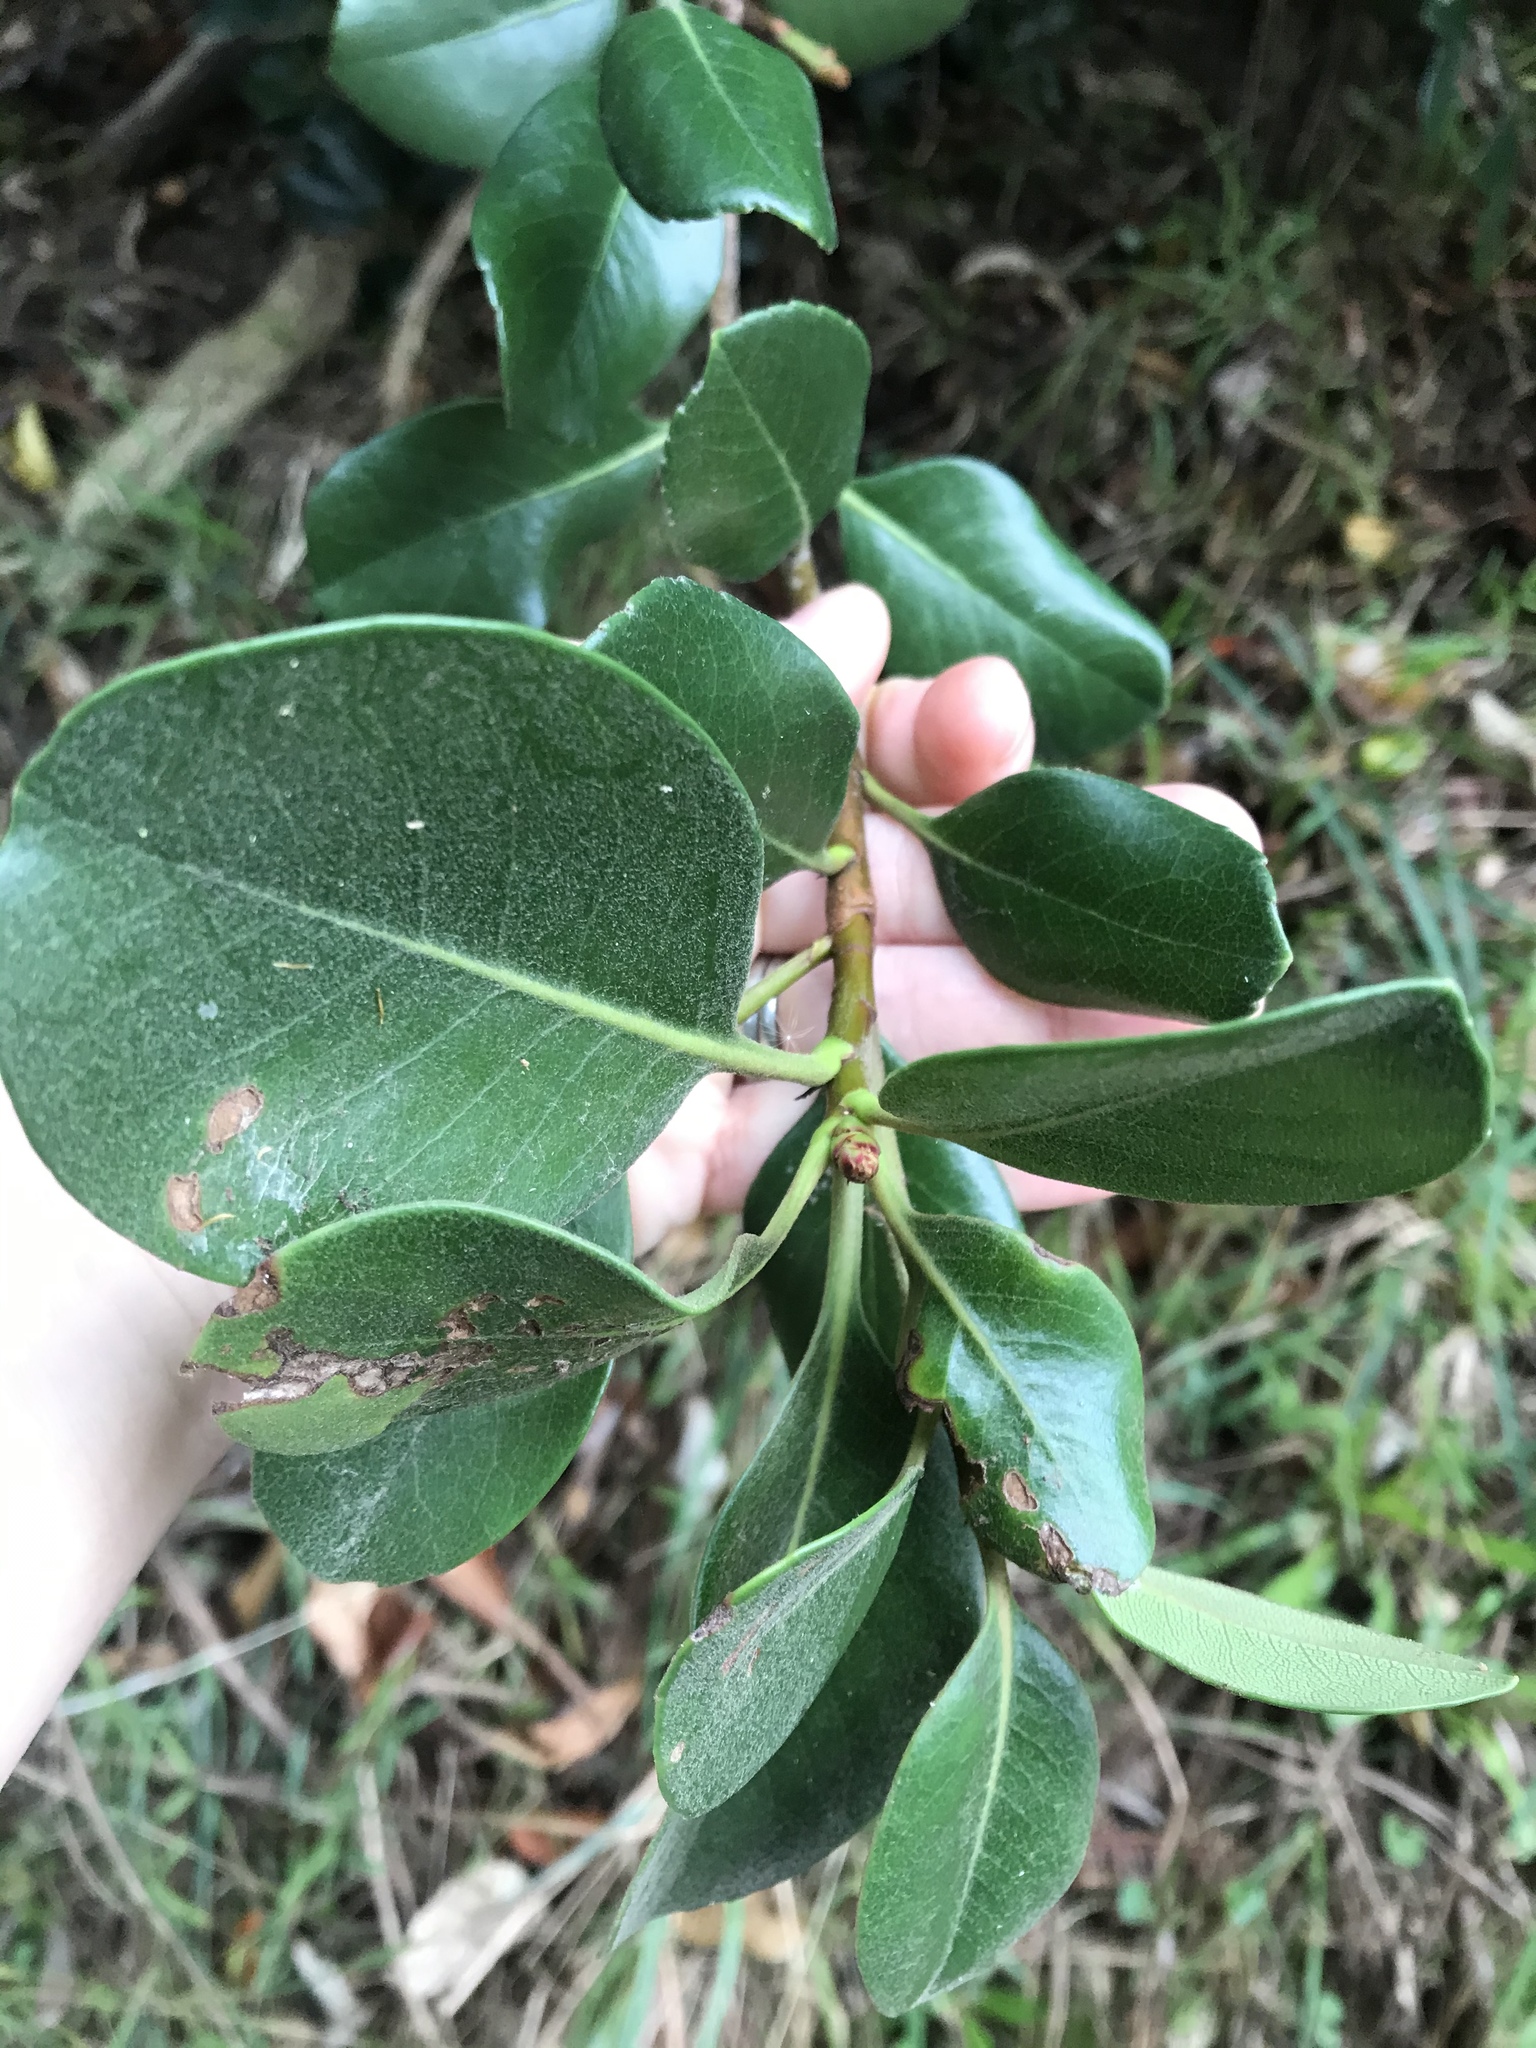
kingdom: Plantae
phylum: Tracheophyta
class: Magnoliopsida
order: Rosales
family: Rosaceae
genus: Rhaphiolepis
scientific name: Rhaphiolepis indica
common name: India-hawthorn
